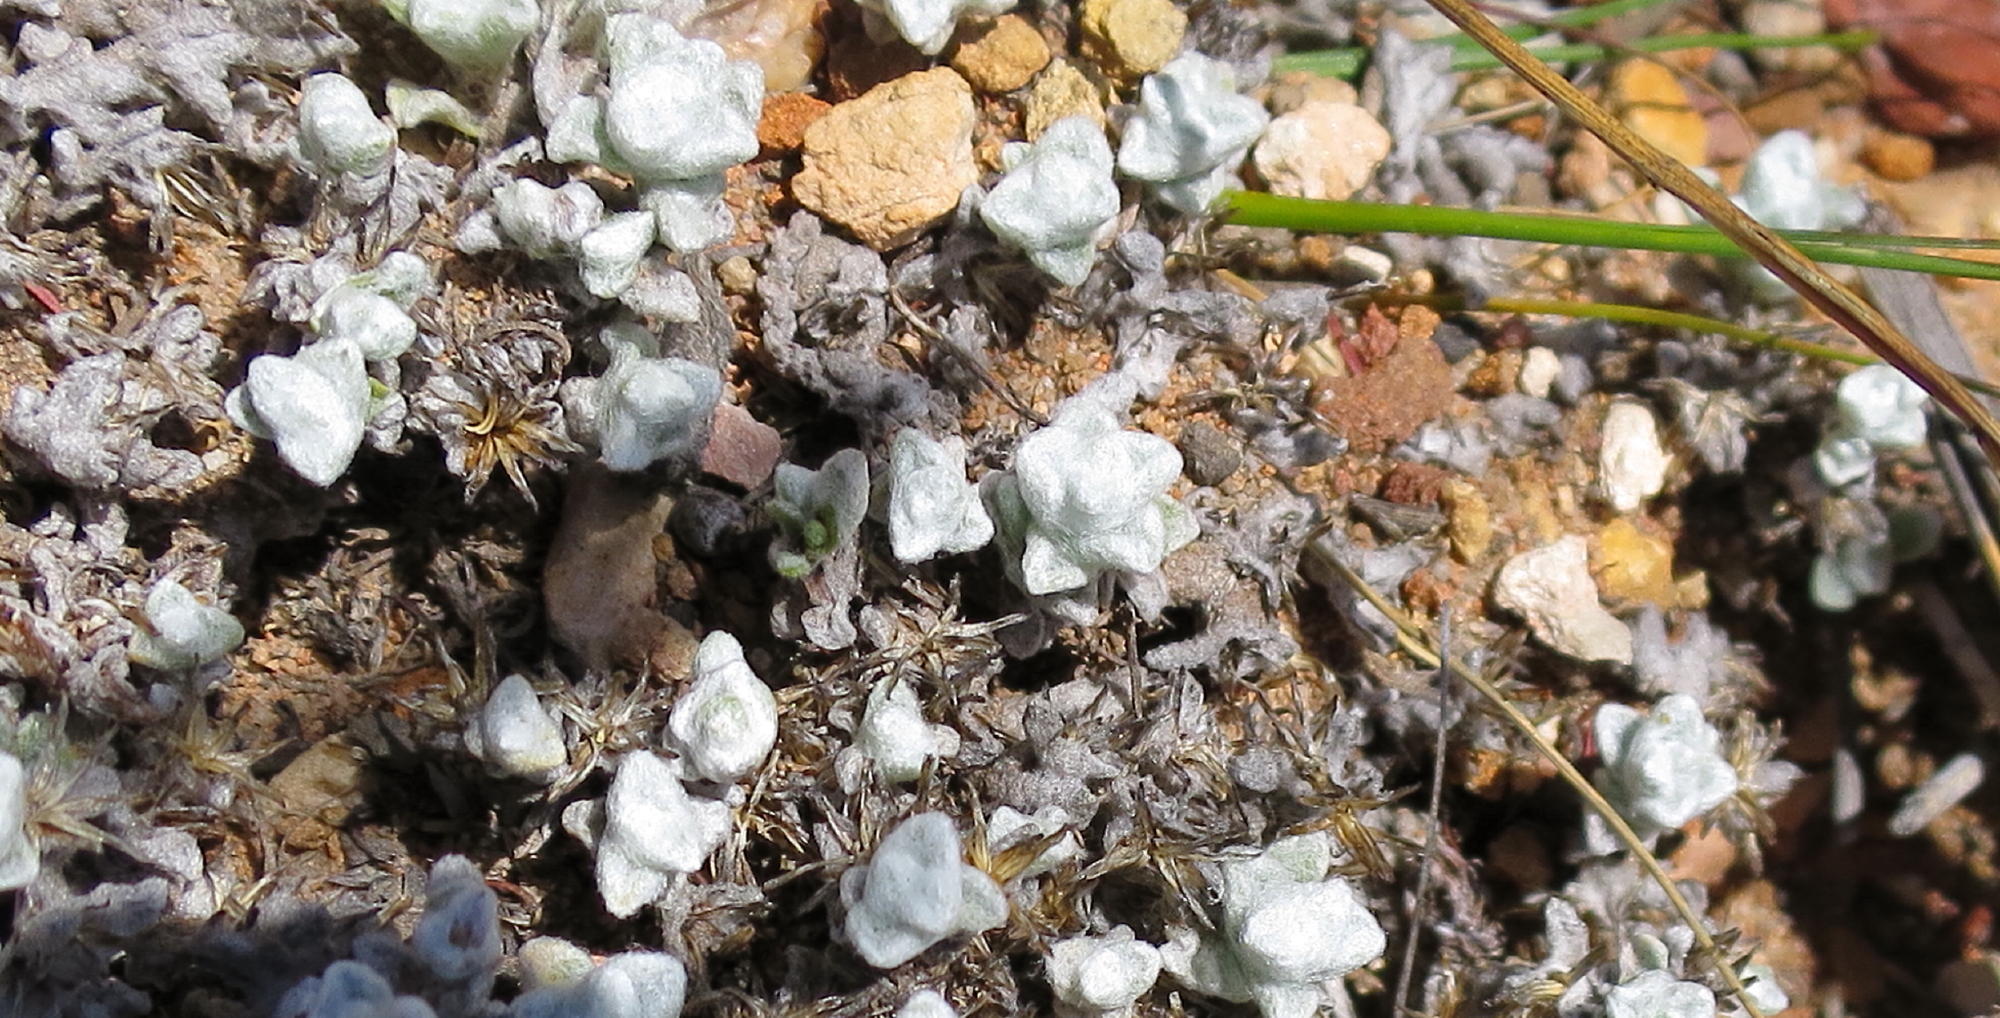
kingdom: Plantae
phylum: Tracheophyta
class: Magnoliopsida
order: Asterales
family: Asteraceae
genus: Helichrysum
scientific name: Helichrysum saxicola
